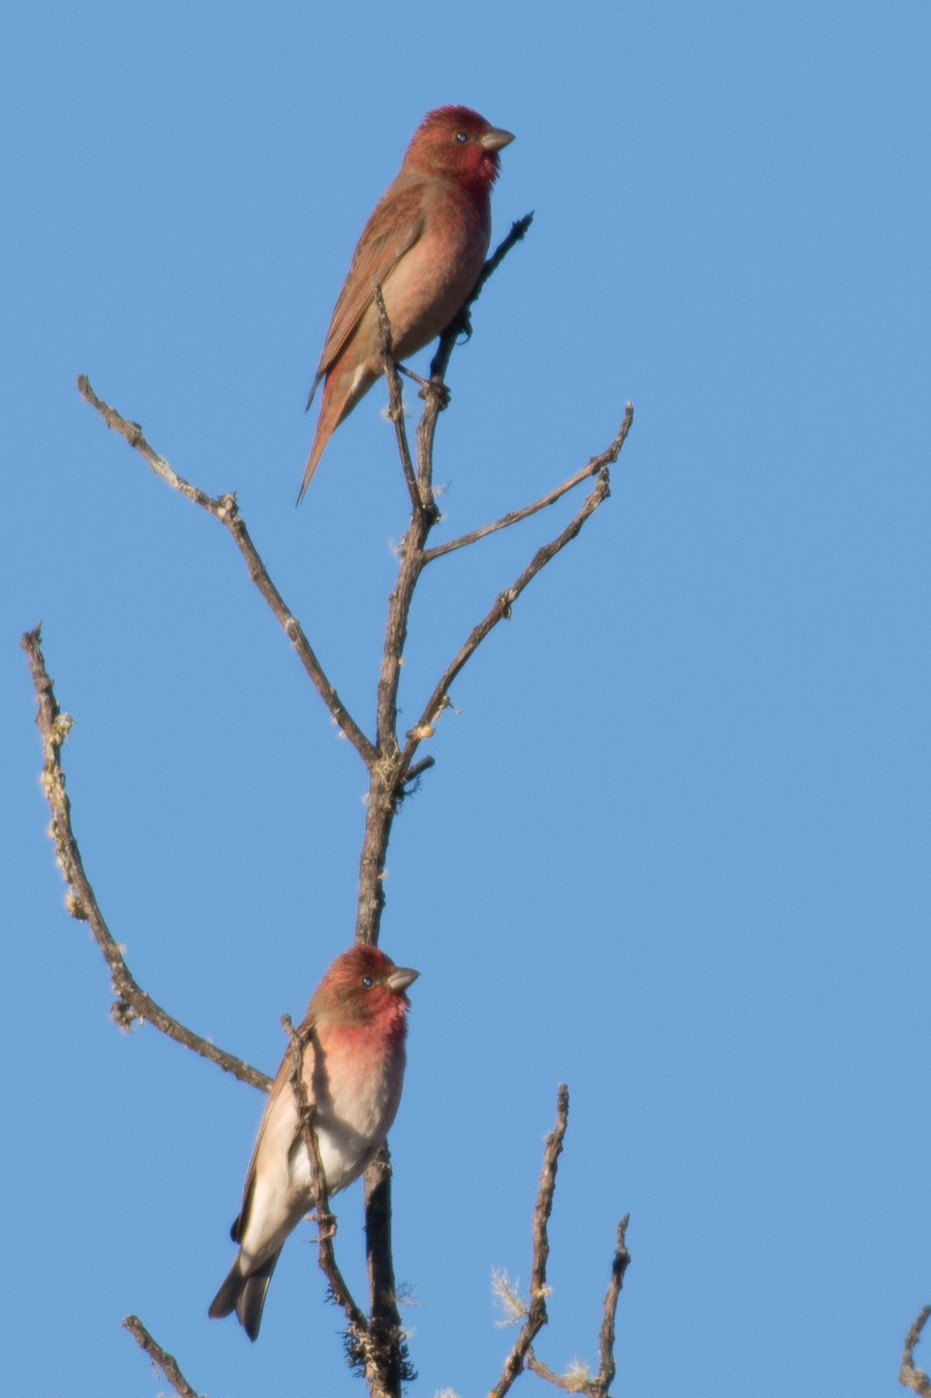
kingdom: Animalia
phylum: Chordata
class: Aves
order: Passeriformes
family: Fringillidae
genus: Carpodacus
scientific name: Carpodacus erythrinus
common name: Common rosefinch
